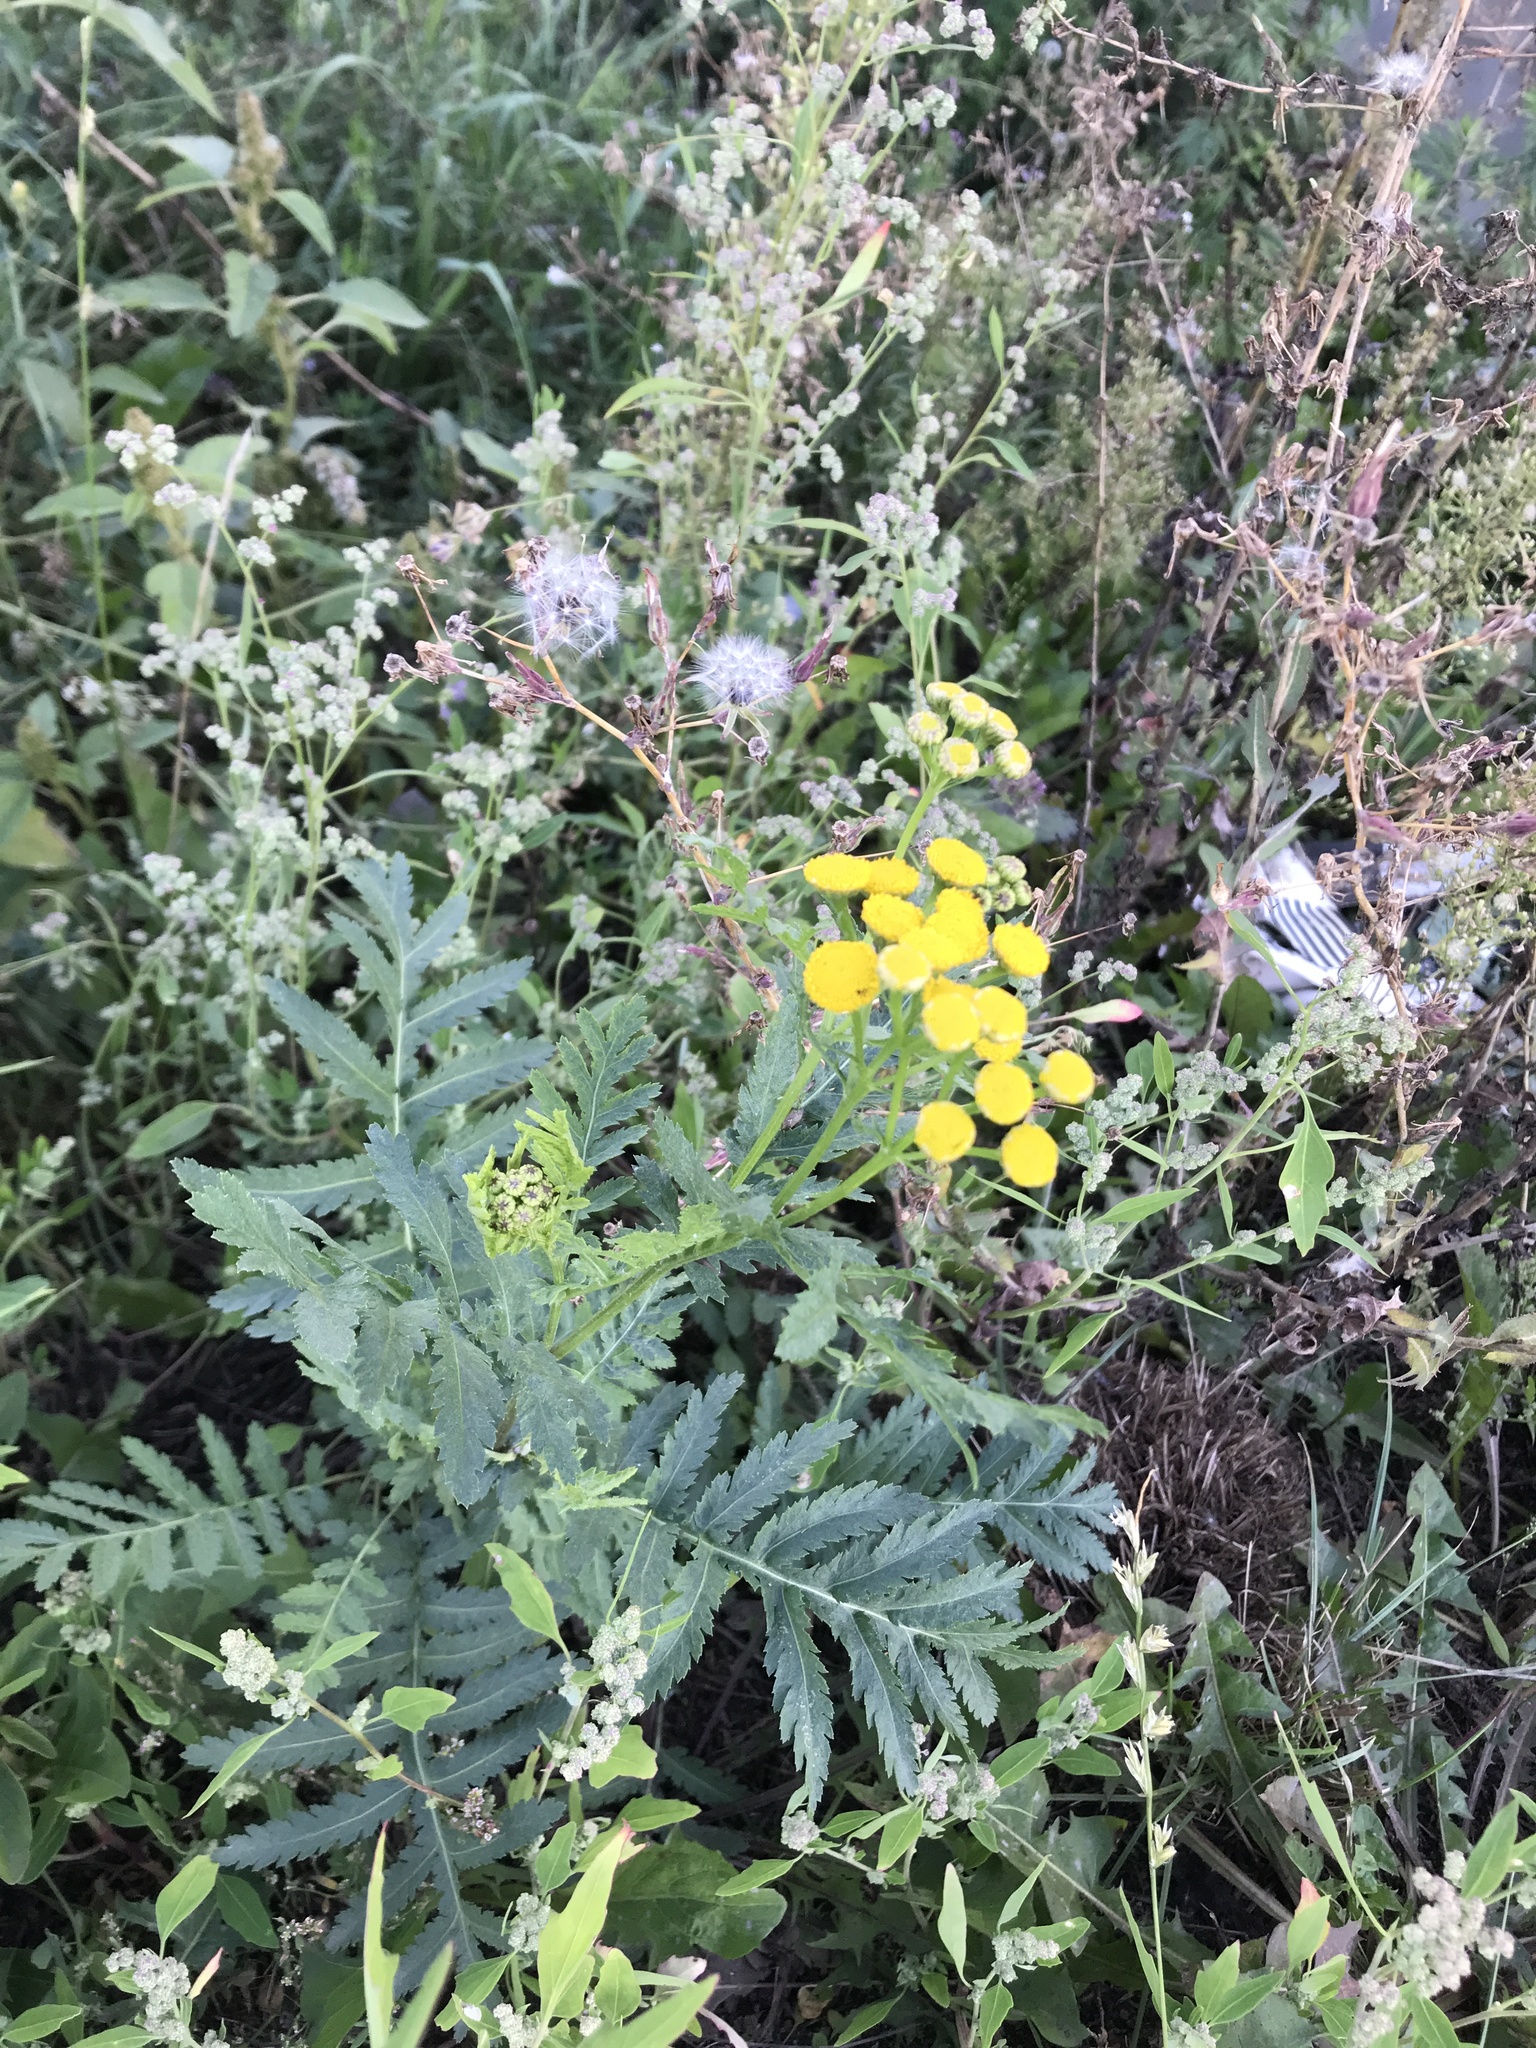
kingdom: Plantae
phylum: Tracheophyta
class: Magnoliopsida
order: Asterales
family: Asteraceae
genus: Tanacetum
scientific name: Tanacetum vulgare
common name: Common tansy
